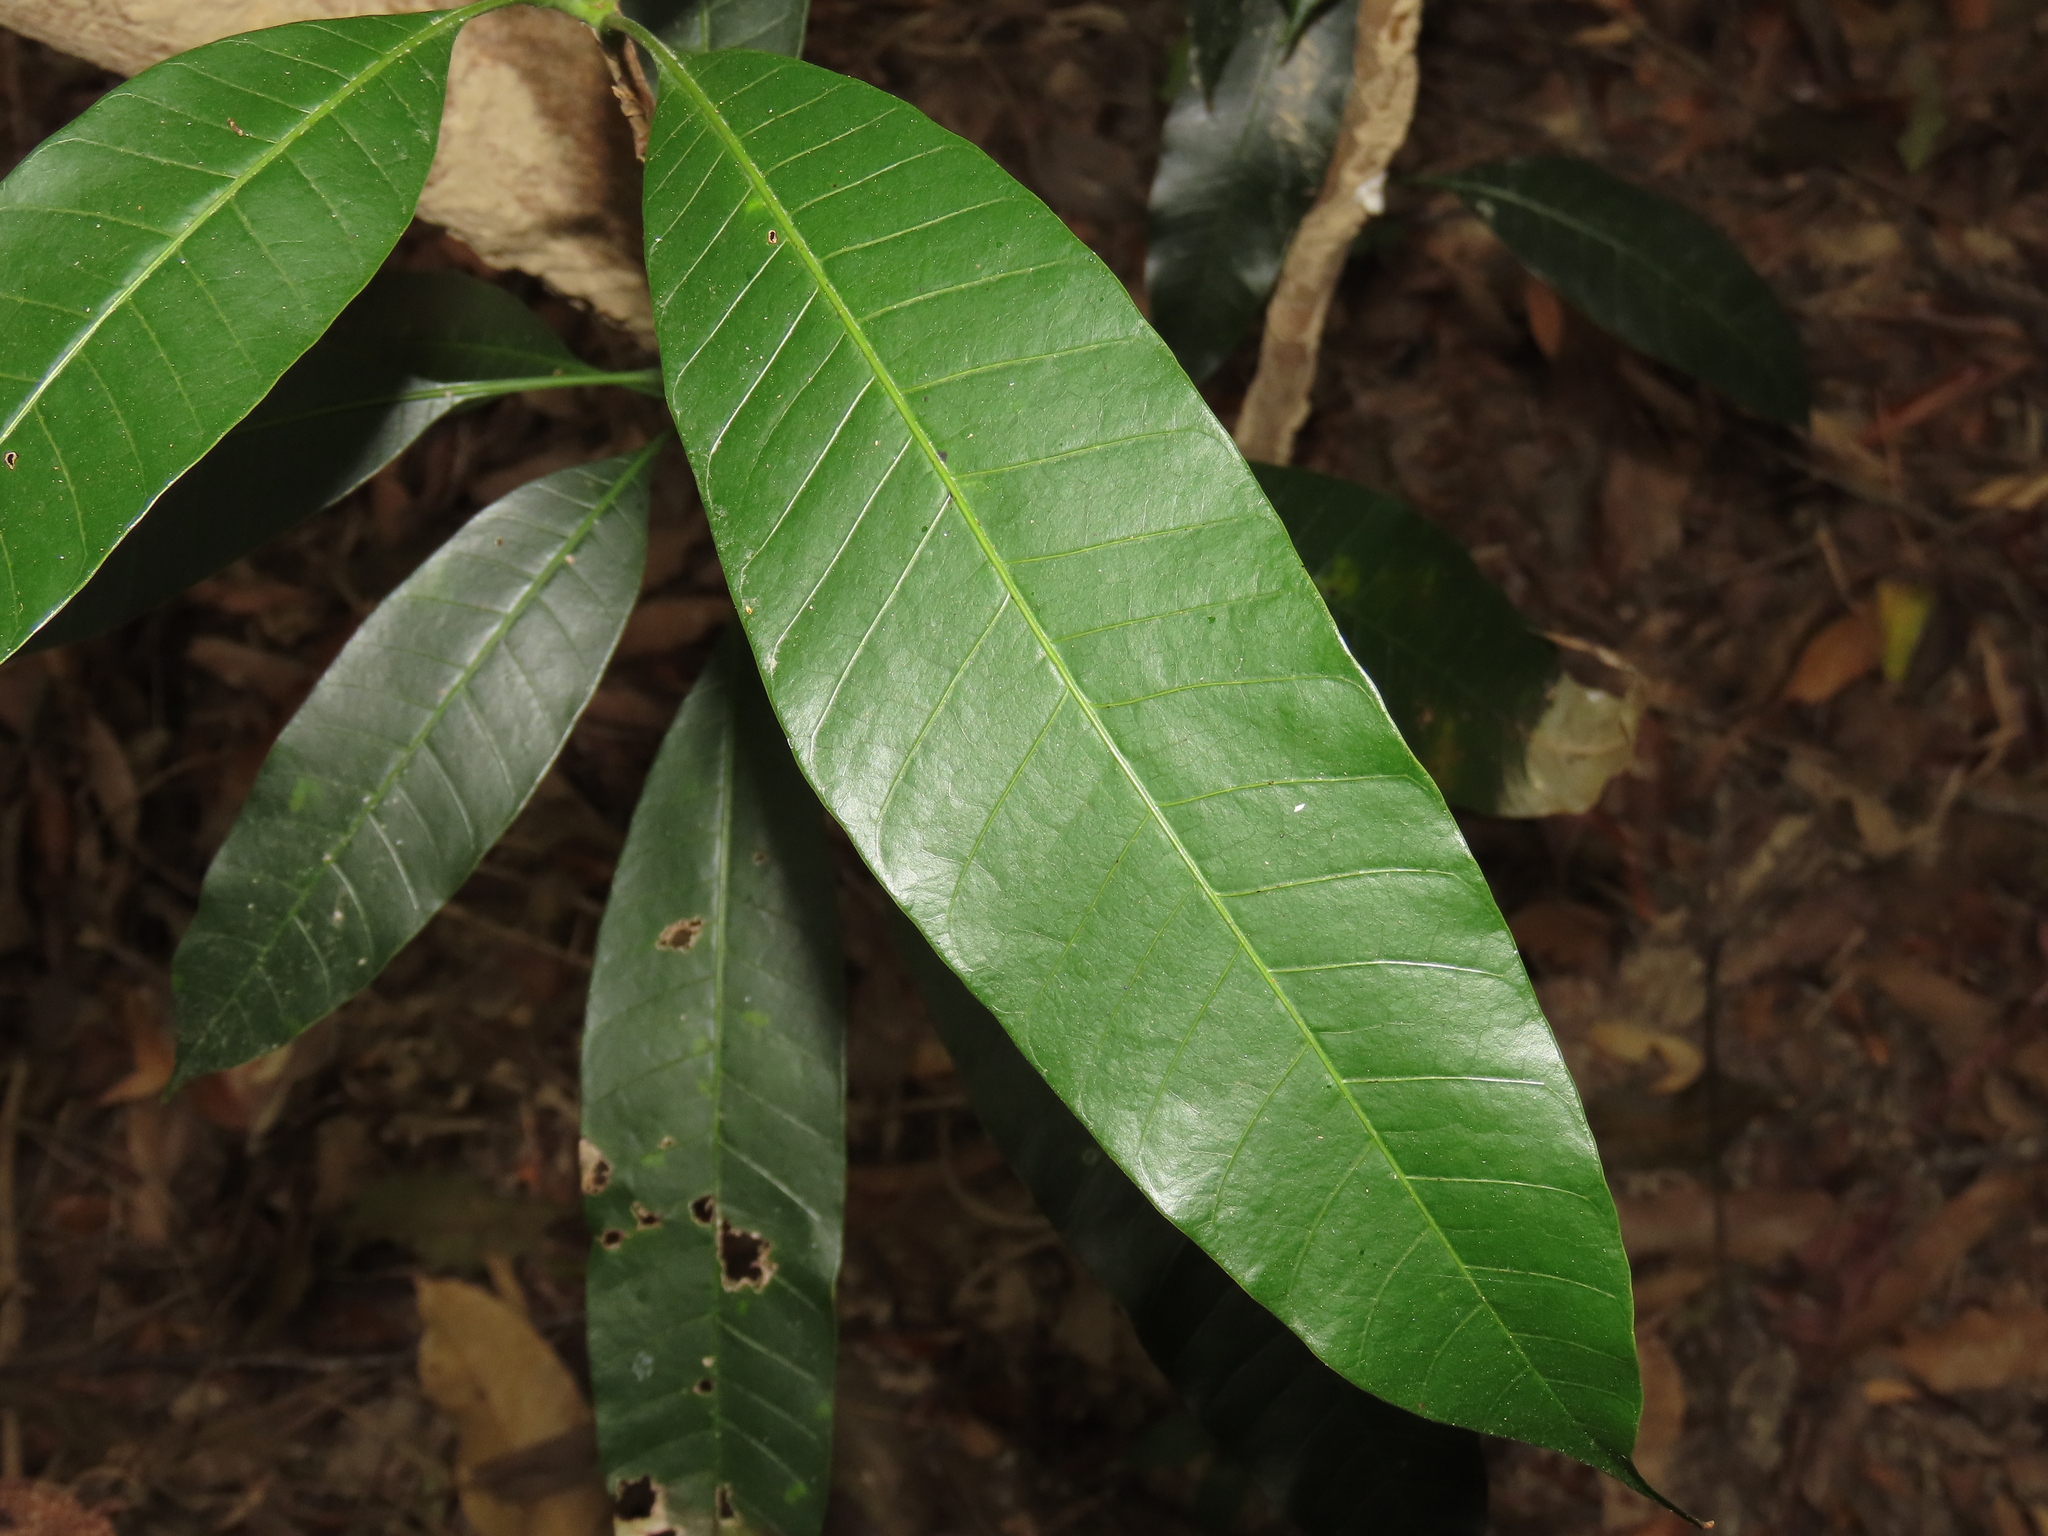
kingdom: Plantae
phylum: Tracheophyta
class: Magnoliopsida
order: Sapindales
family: Anacardiaceae
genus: Mangifera
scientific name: Mangifera indica
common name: Mango
